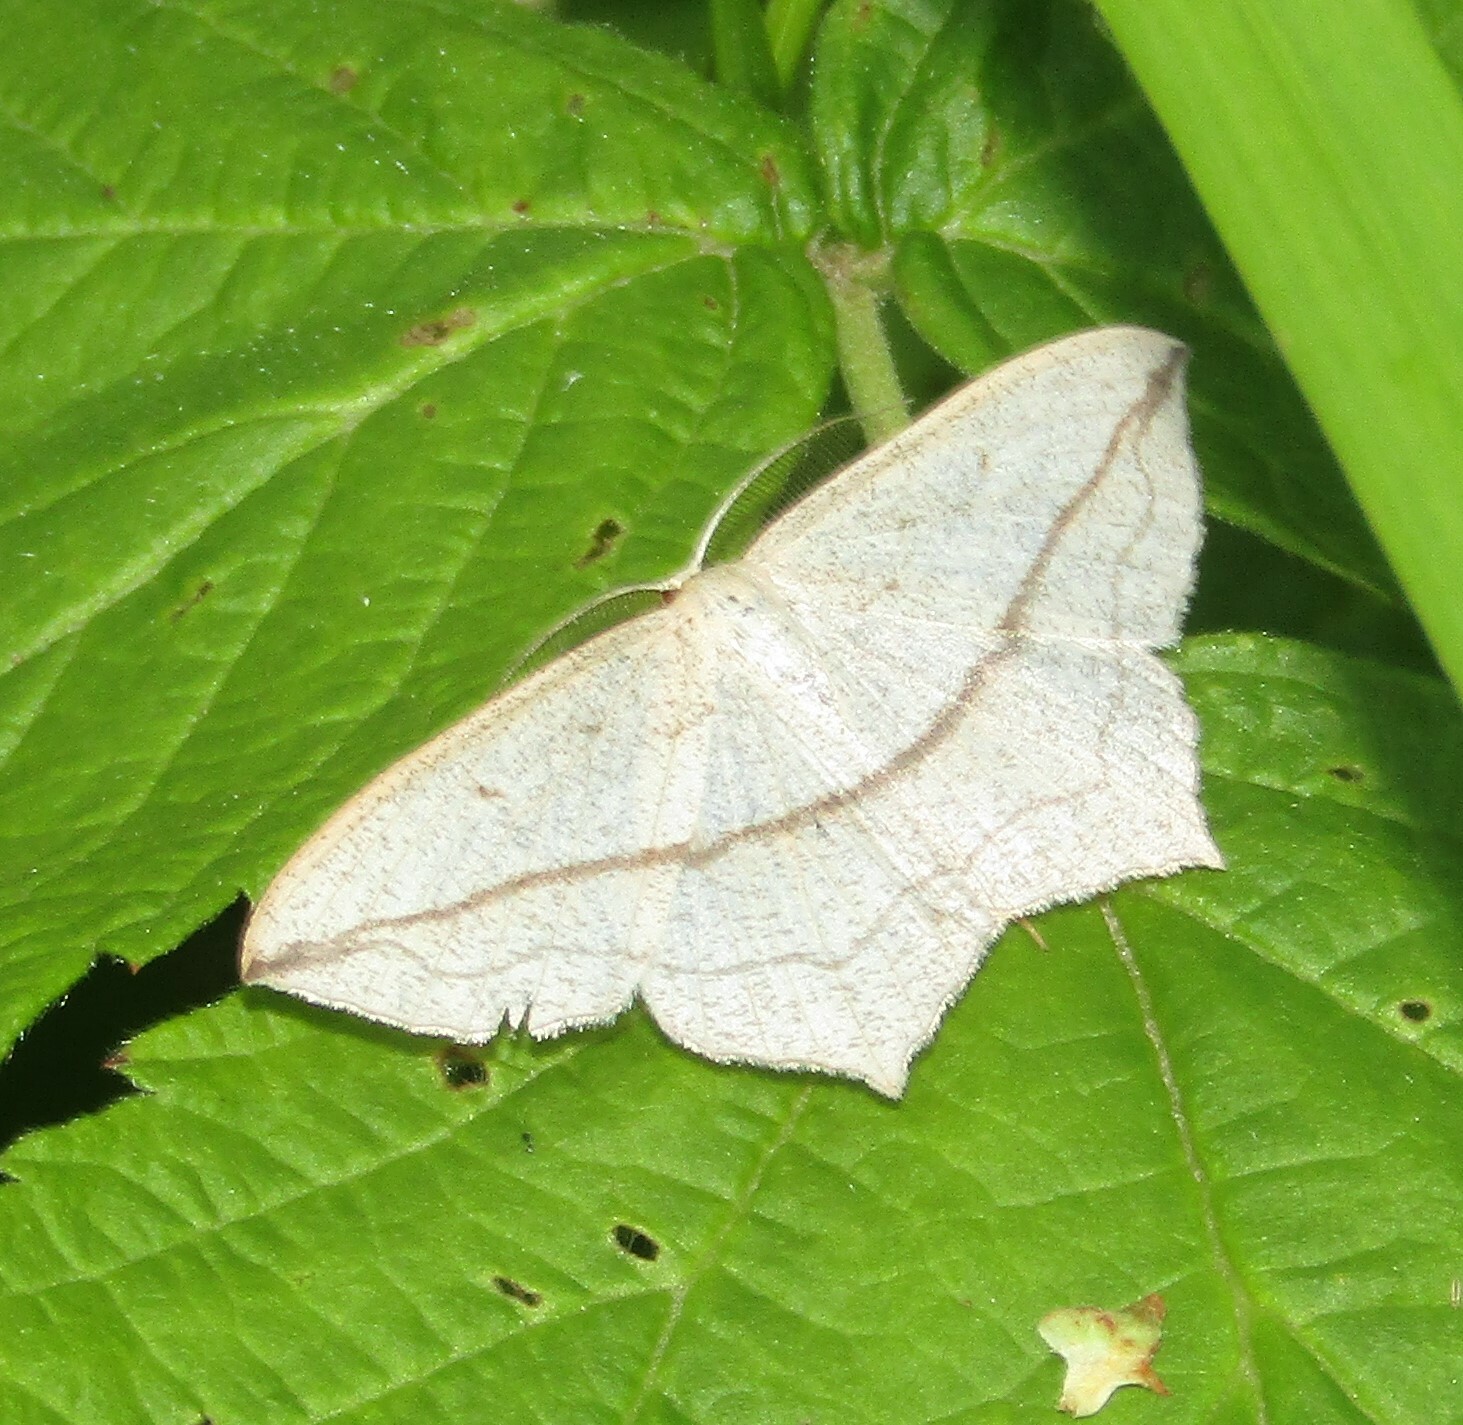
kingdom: Animalia
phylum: Arthropoda
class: Insecta
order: Lepidoptera
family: Geometridae
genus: Timandra
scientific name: Timandra comae
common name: Blood-vein
